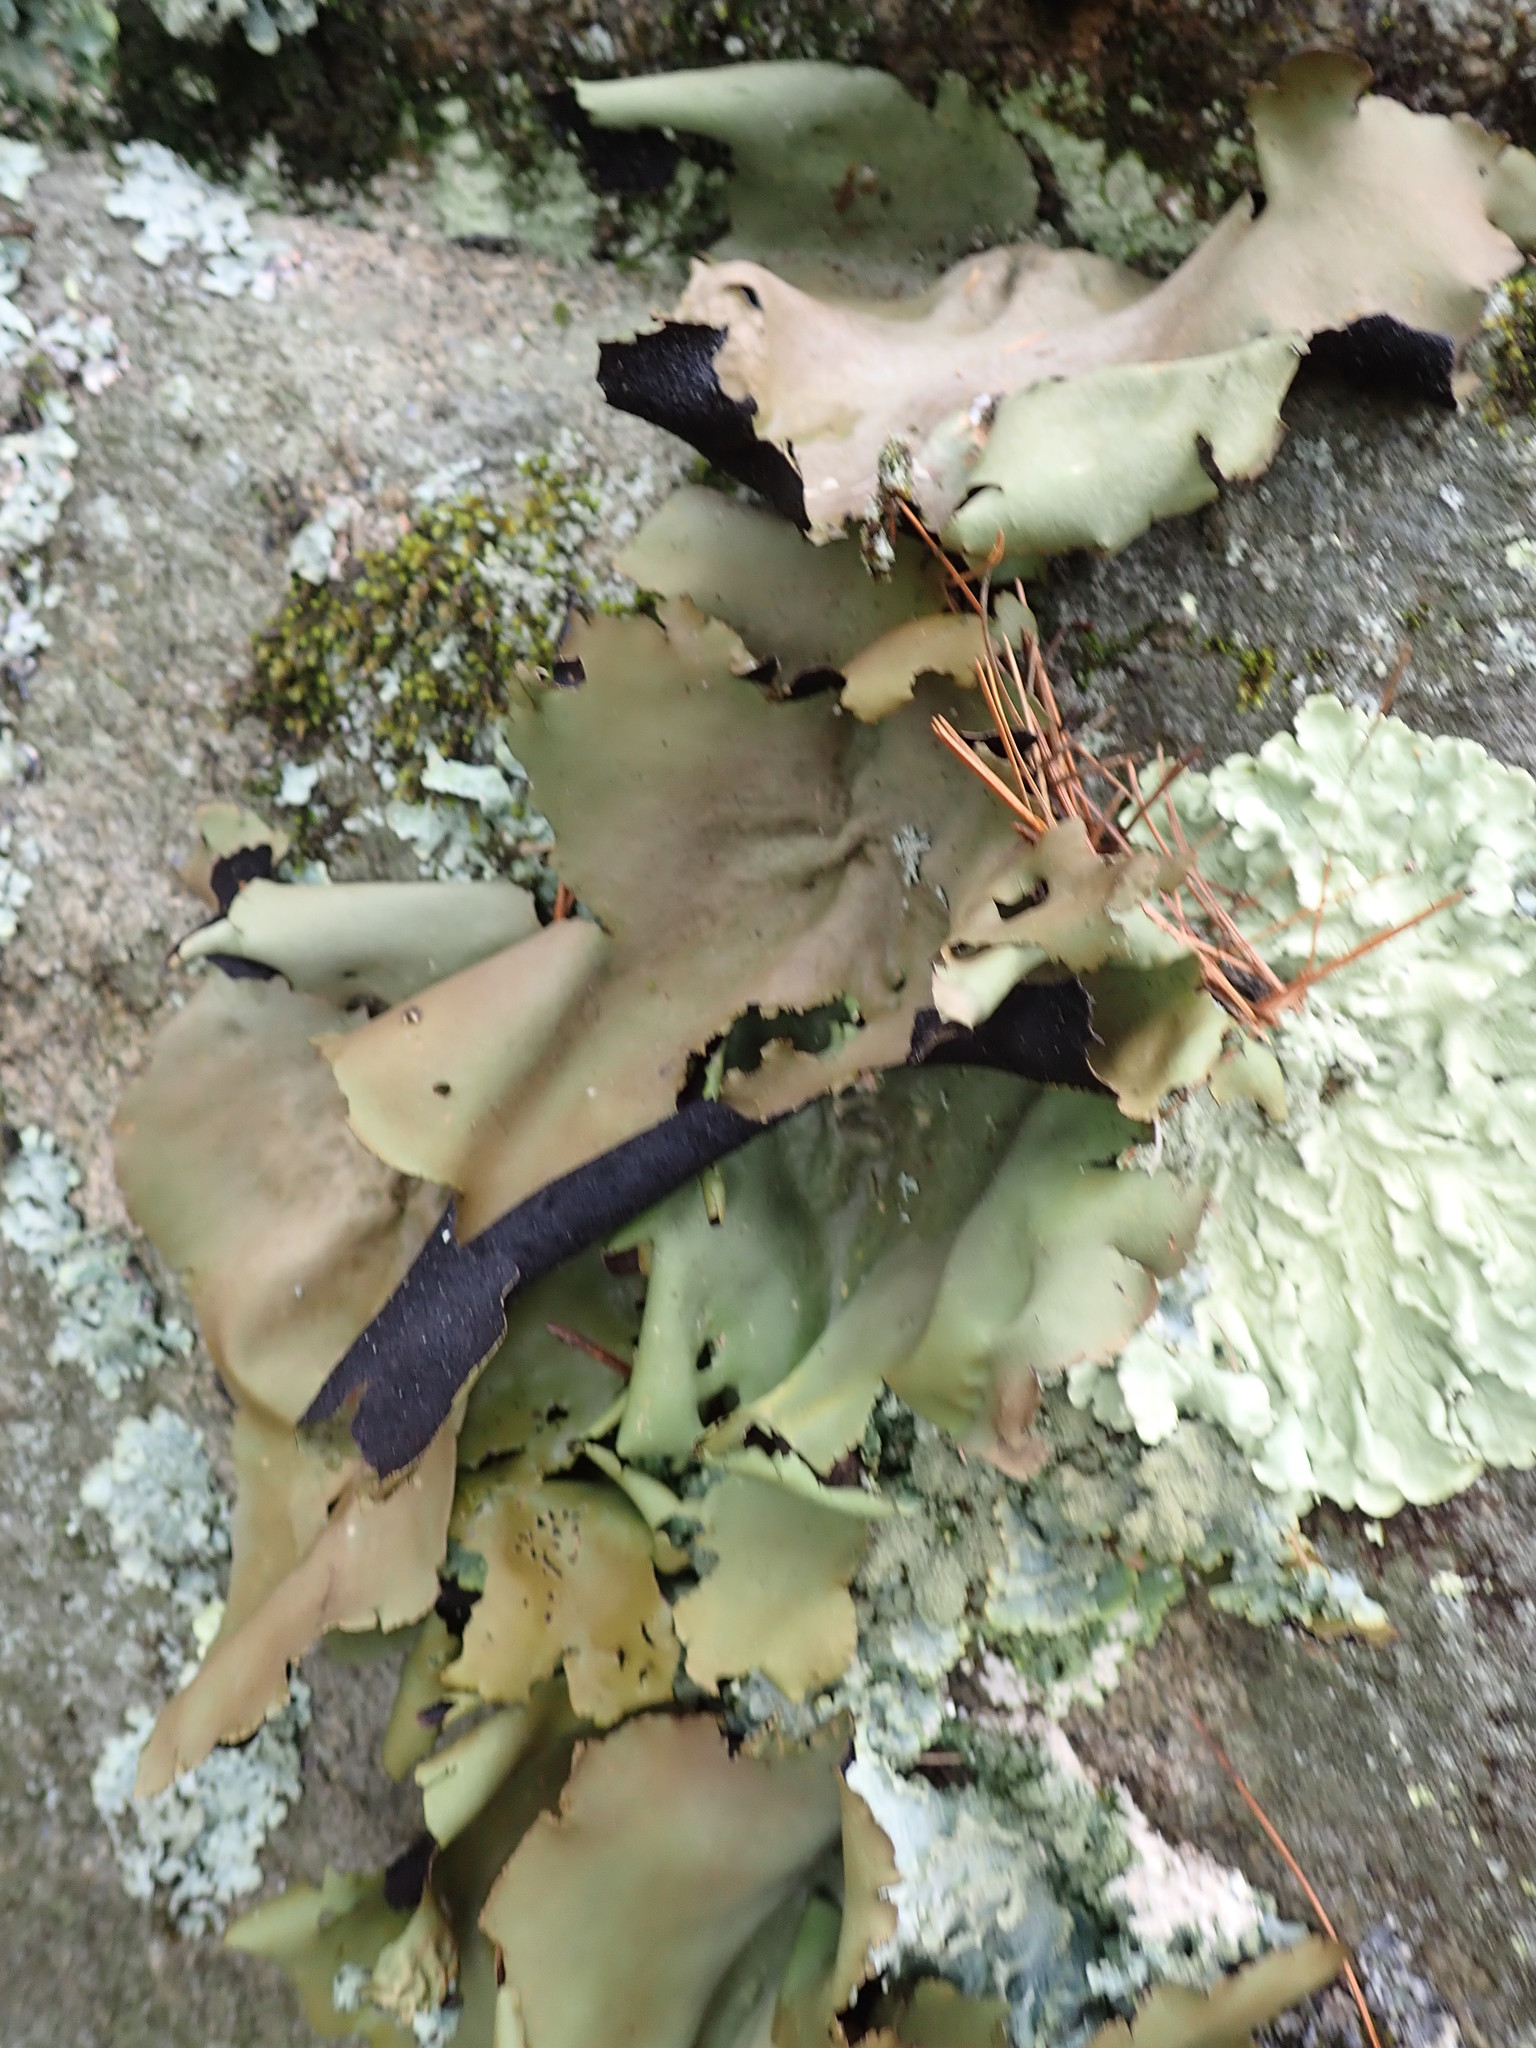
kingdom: Fungi
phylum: Ascomycota
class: Lecanoromycetes
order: Umbilicariales
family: Umbilicariaceae
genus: Umbilicaria
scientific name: Umbilicaria mammulata
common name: Smooth rock tripe
